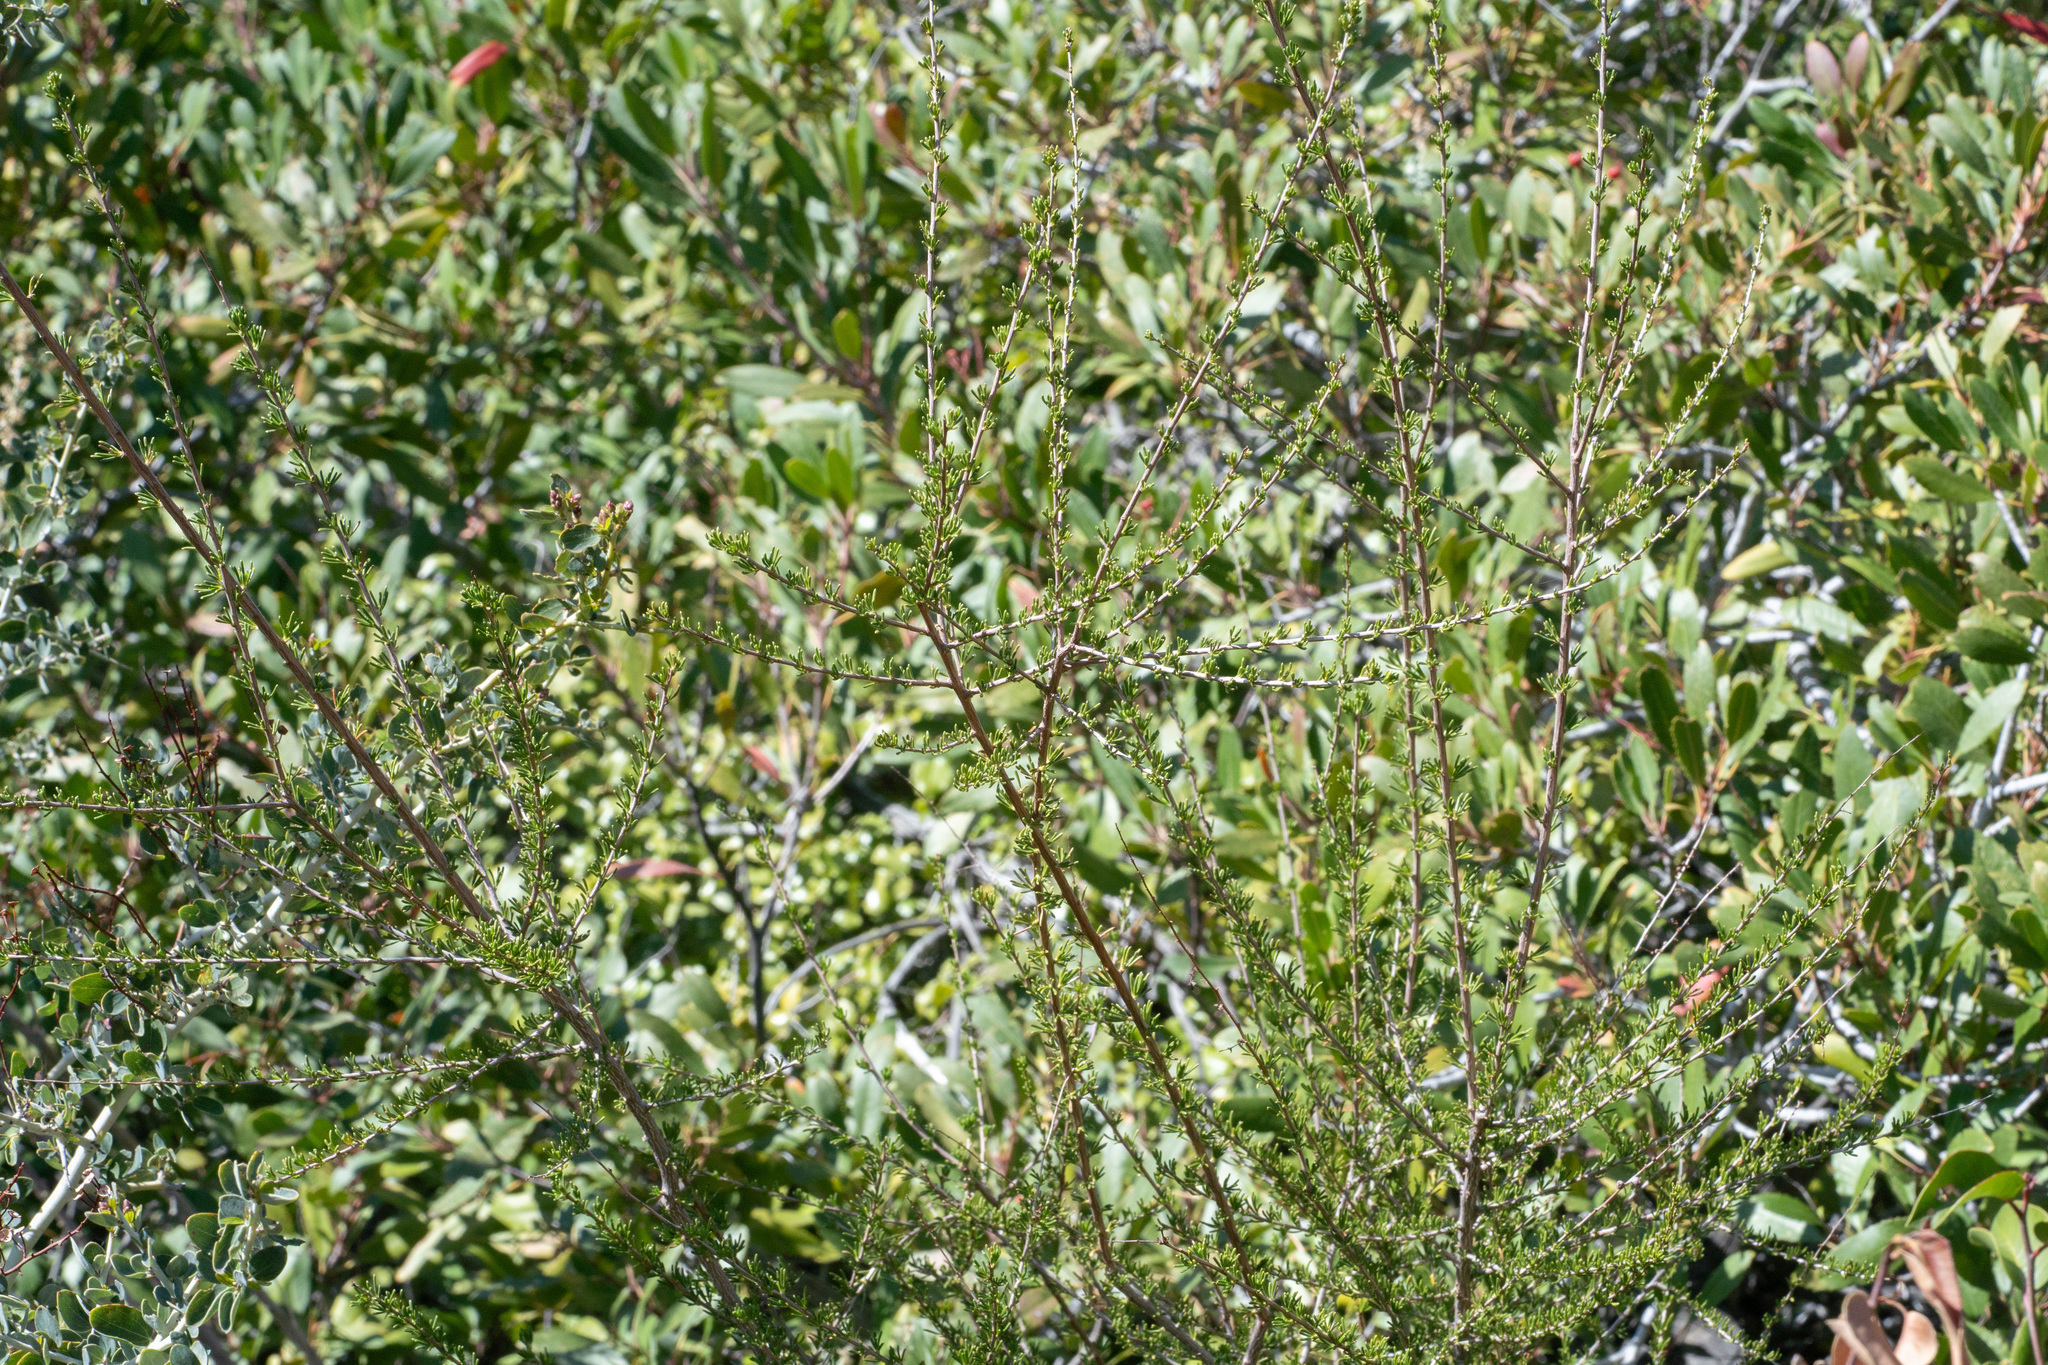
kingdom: Plantae
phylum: Tracheophyta
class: Magnoliopsida
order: Rosales
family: Rosaceae
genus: Adenostoma
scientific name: Adenostoma fasciculatum
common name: Chamise
